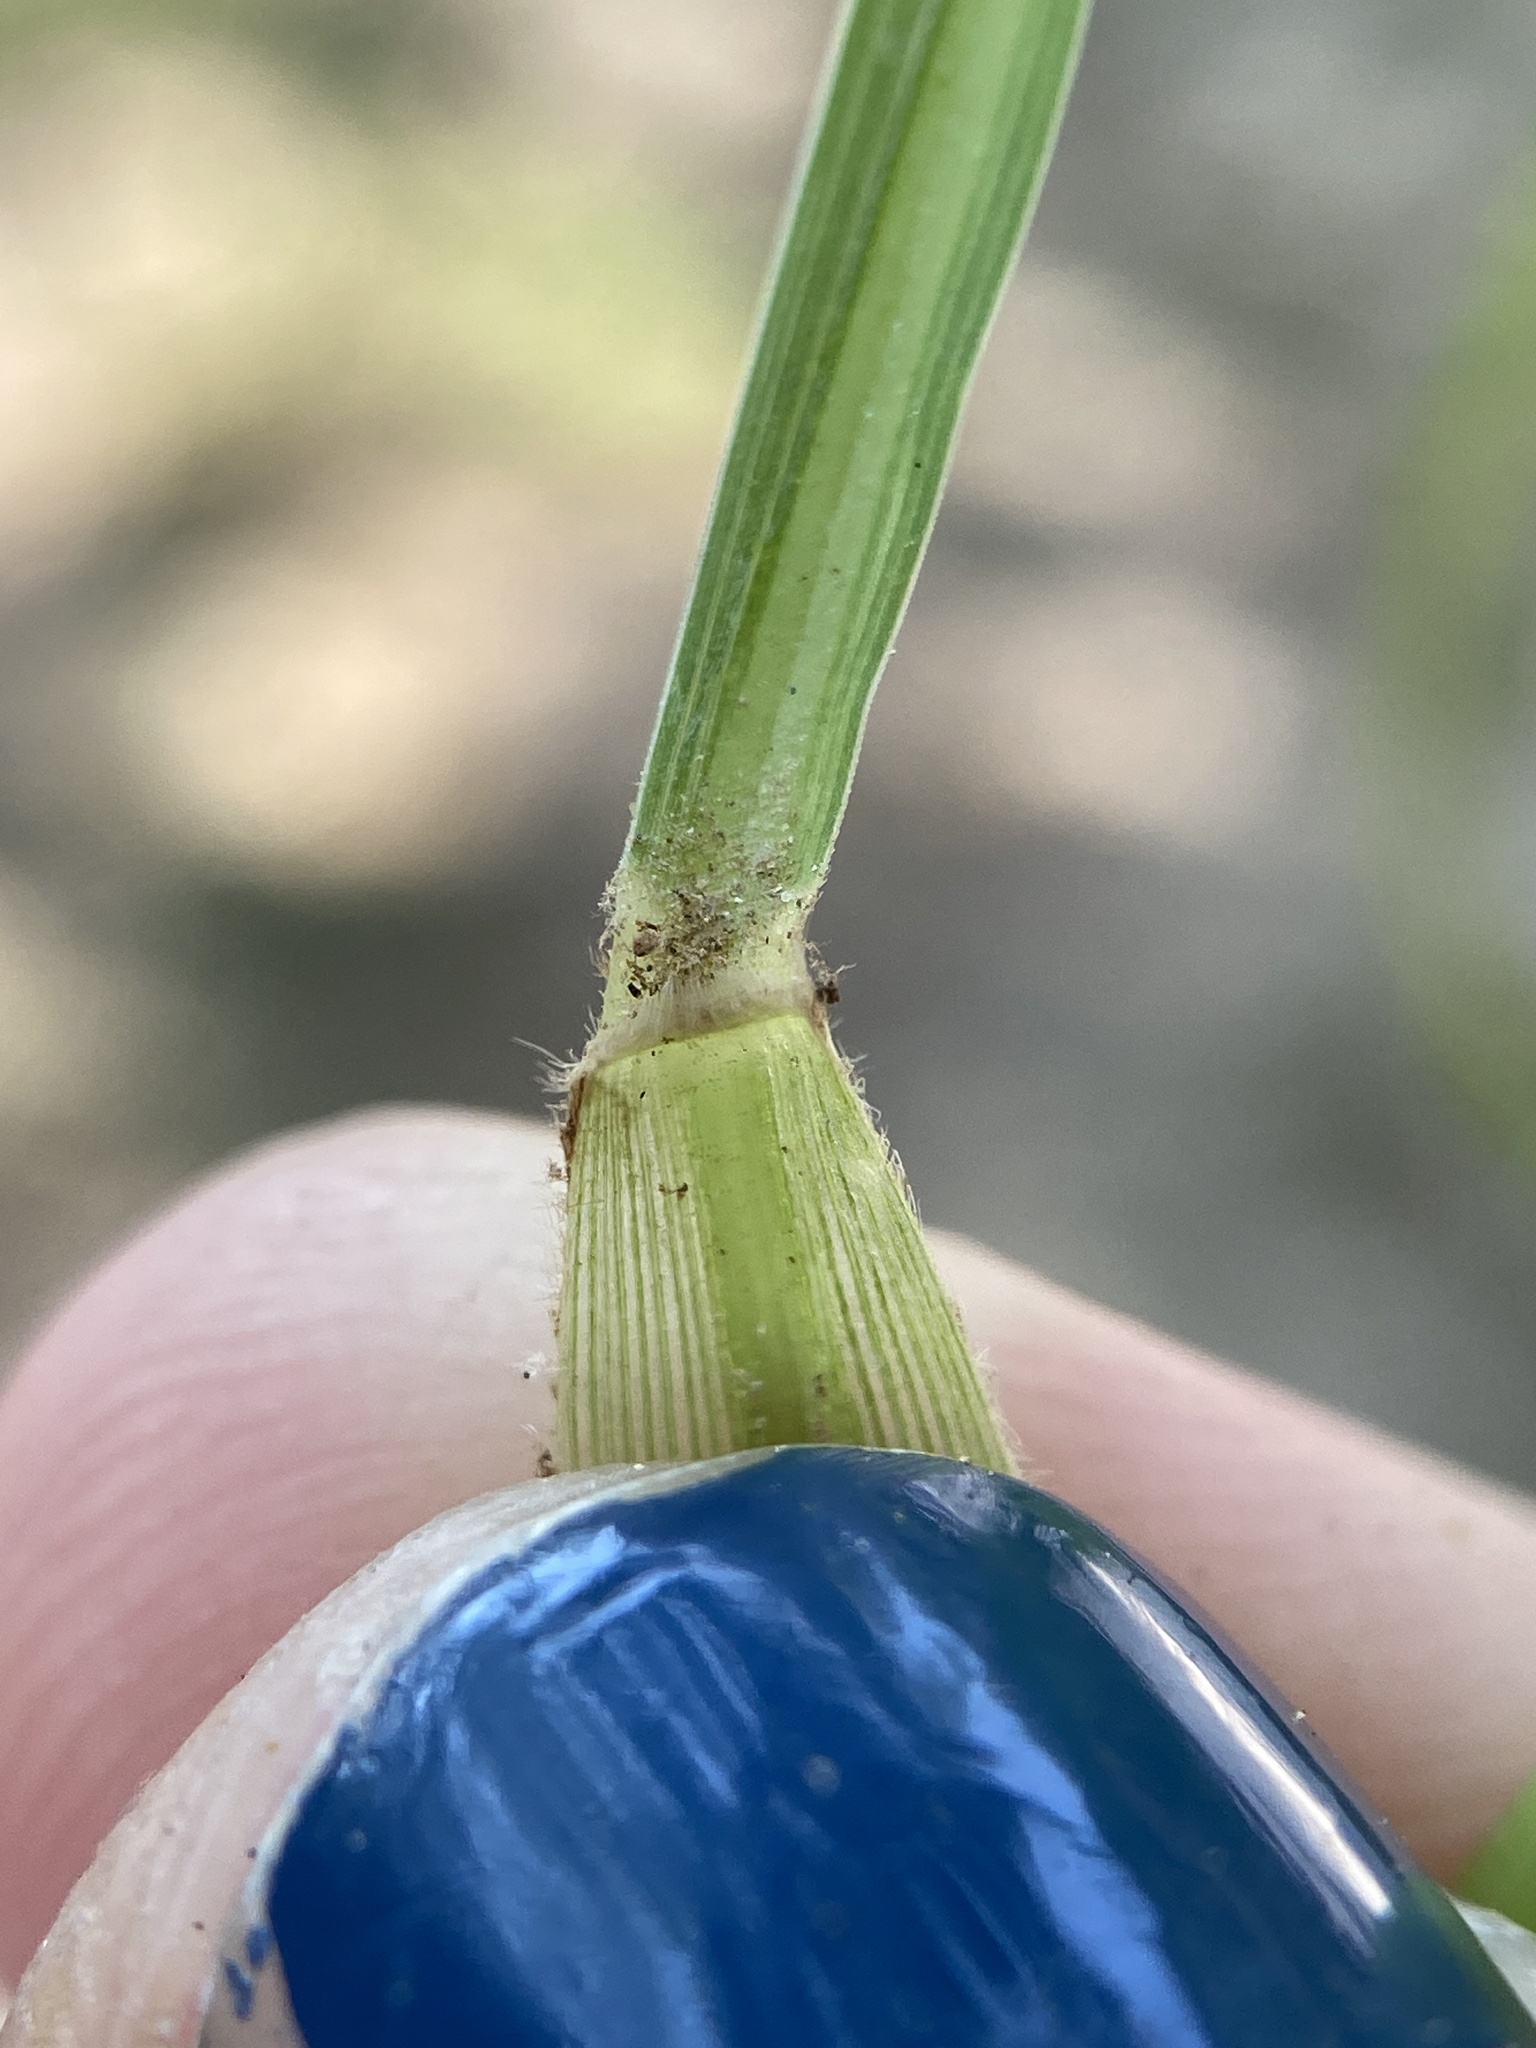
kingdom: Plantae
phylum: Tracheophyta
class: Liliopsida
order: Poales
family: Poaceae
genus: Setaria
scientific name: Setaria viridis
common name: Green bristlegrass
